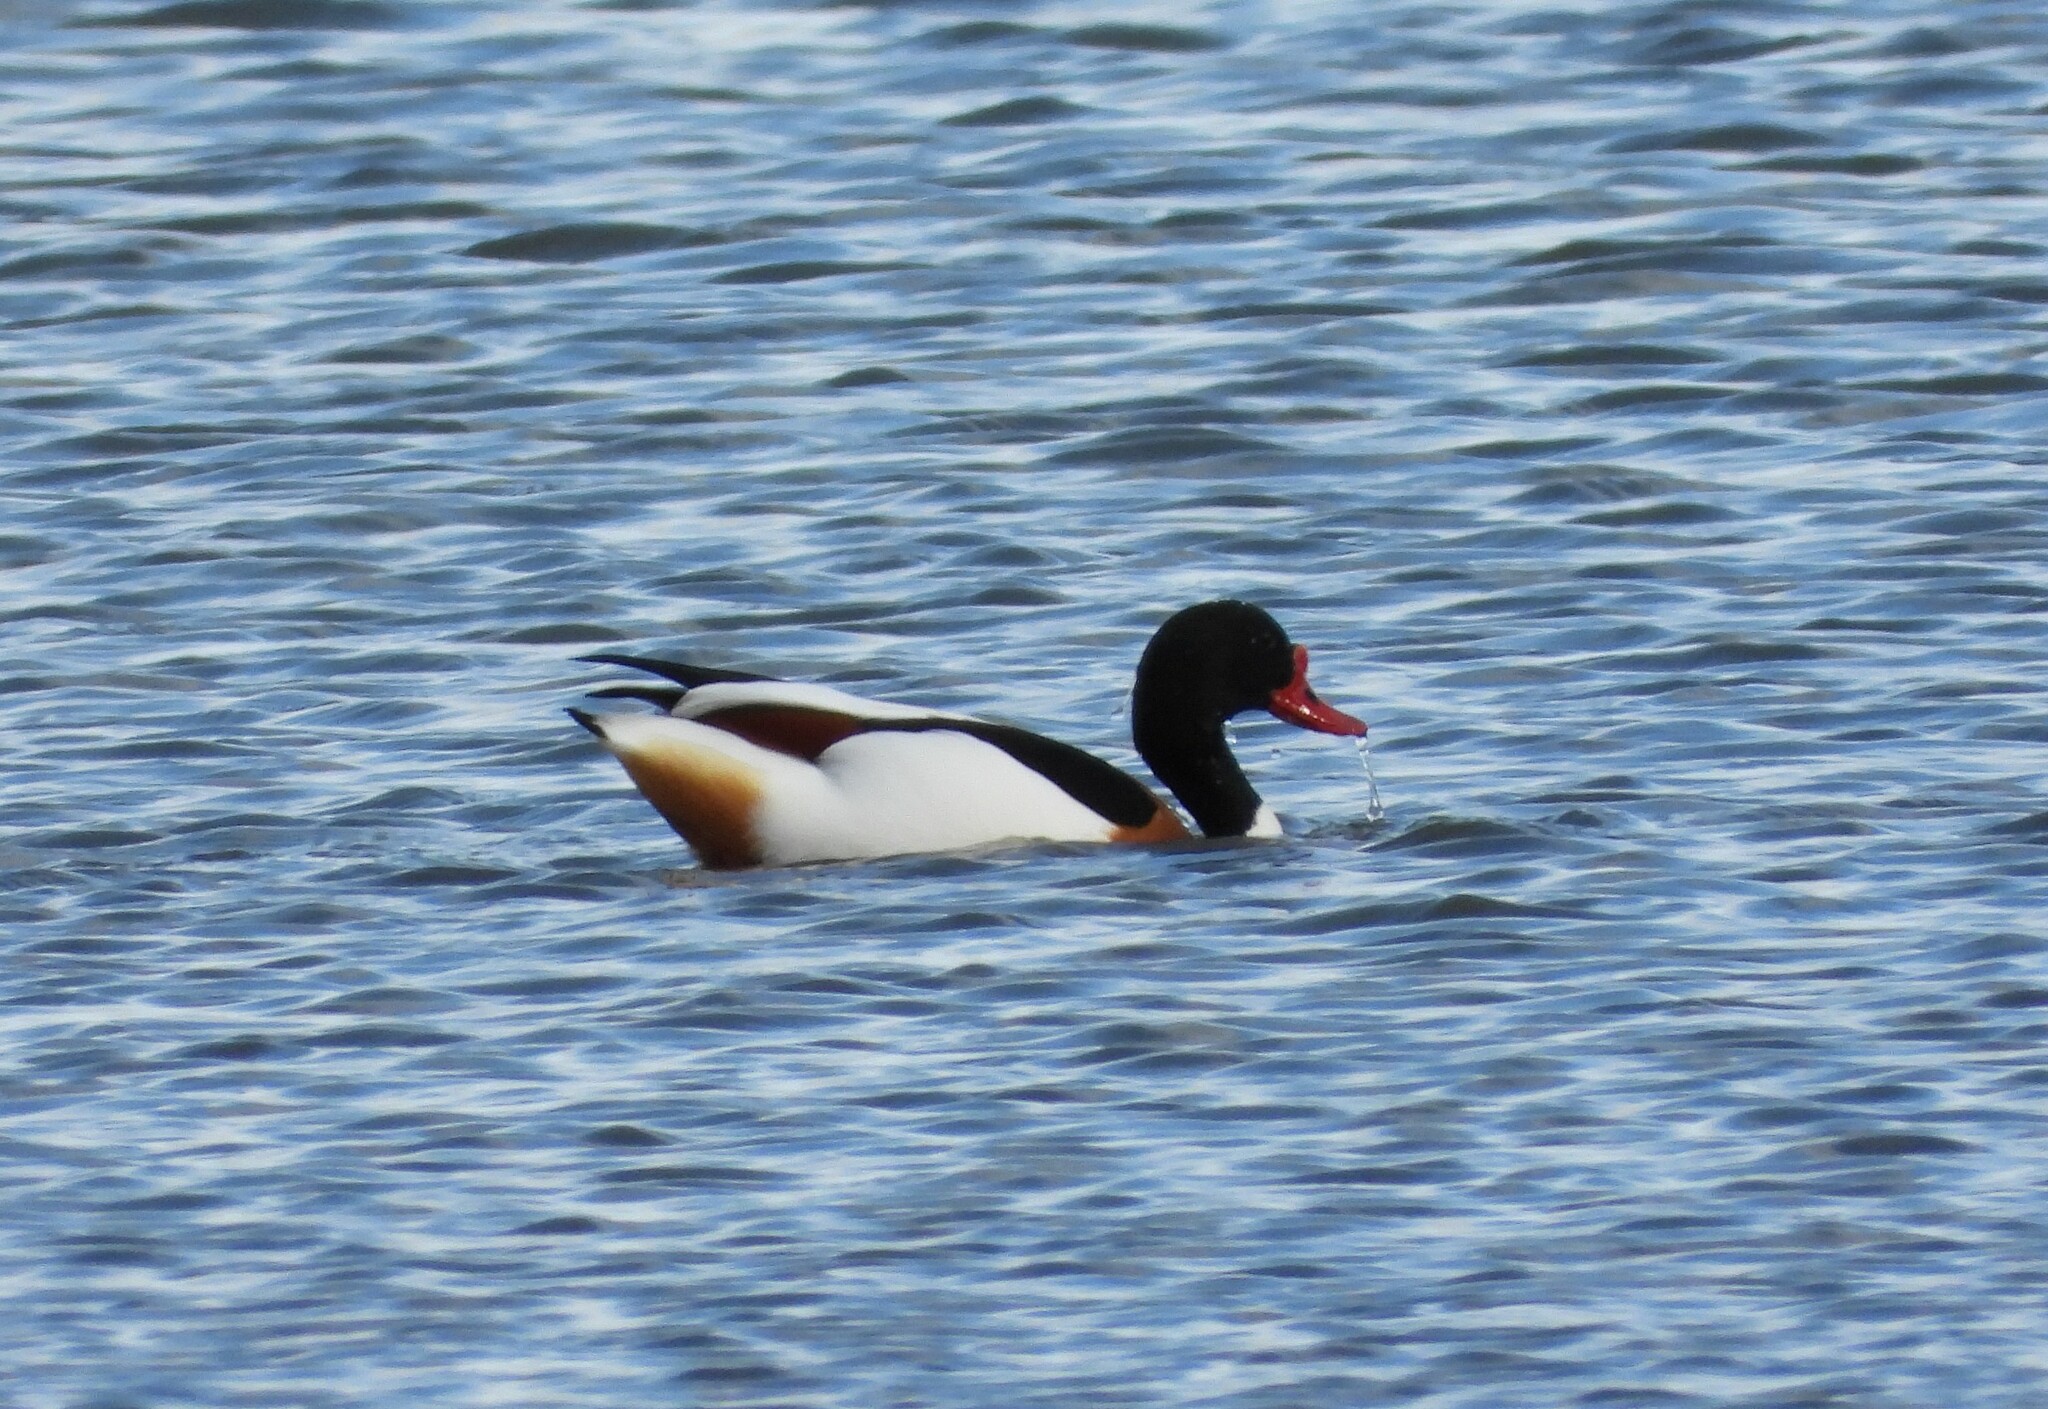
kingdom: Animalia
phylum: Chordata
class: Aves
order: Anseriformes
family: Anatidae
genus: Tadorna
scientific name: Tadorna tadorna
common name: Common shelduck
